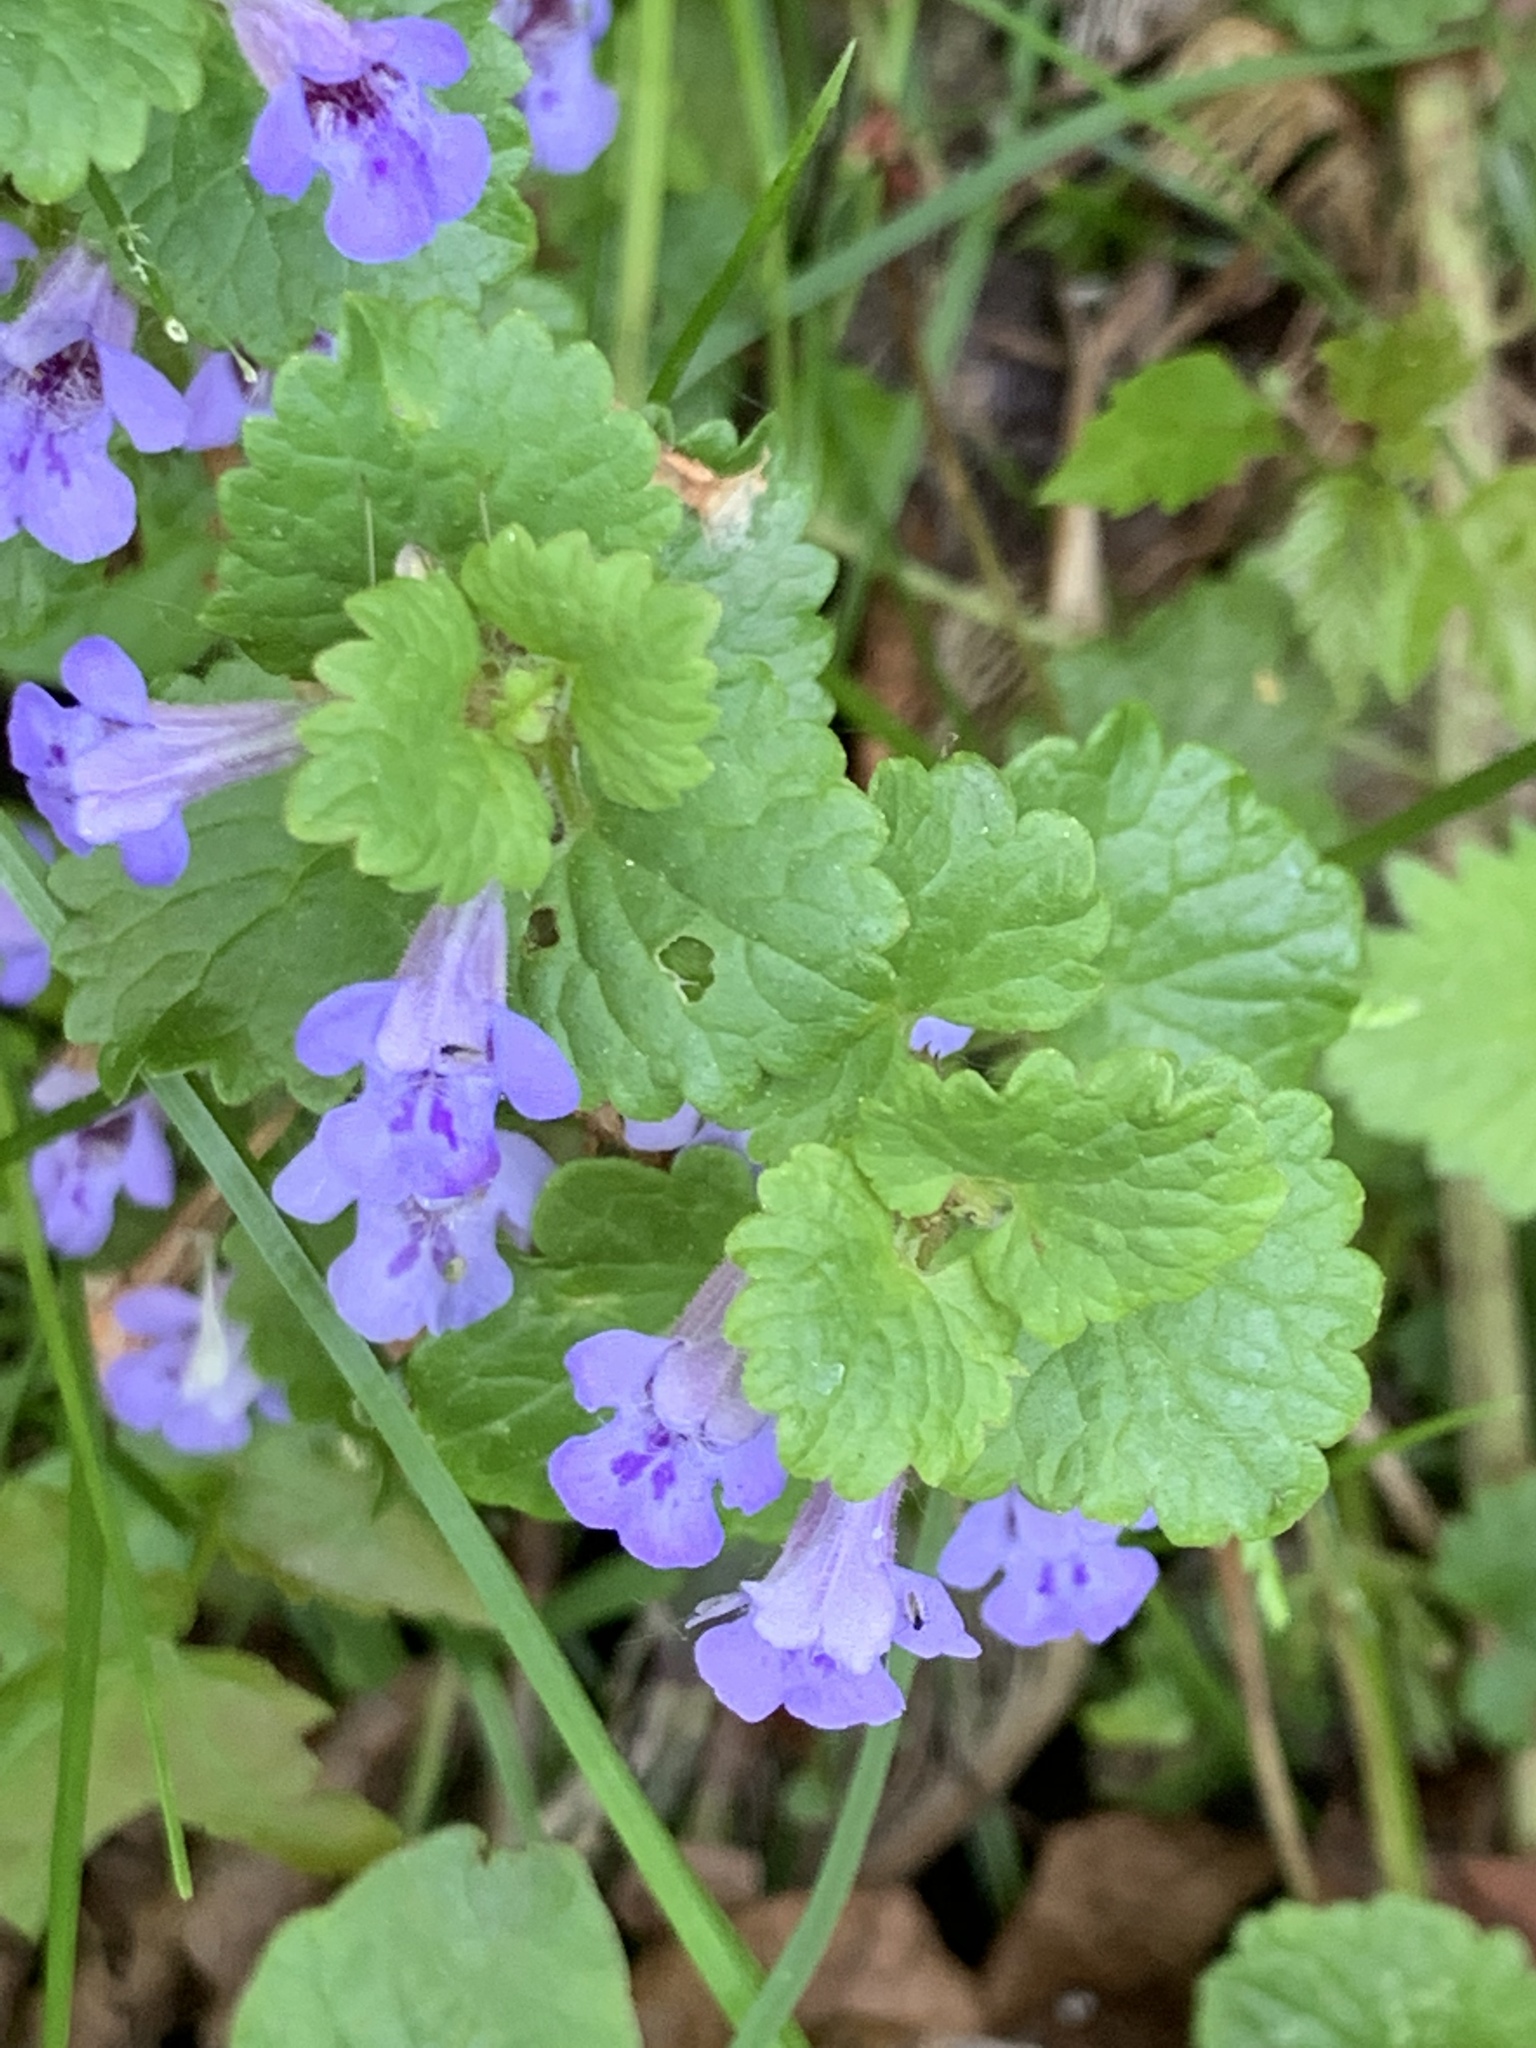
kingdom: Plantae
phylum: Tracheophyta
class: Magnoliopsida
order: Lamiales
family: Lamiaceae
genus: Glechoma
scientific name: Glechoma hederacea
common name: Ground ivy
